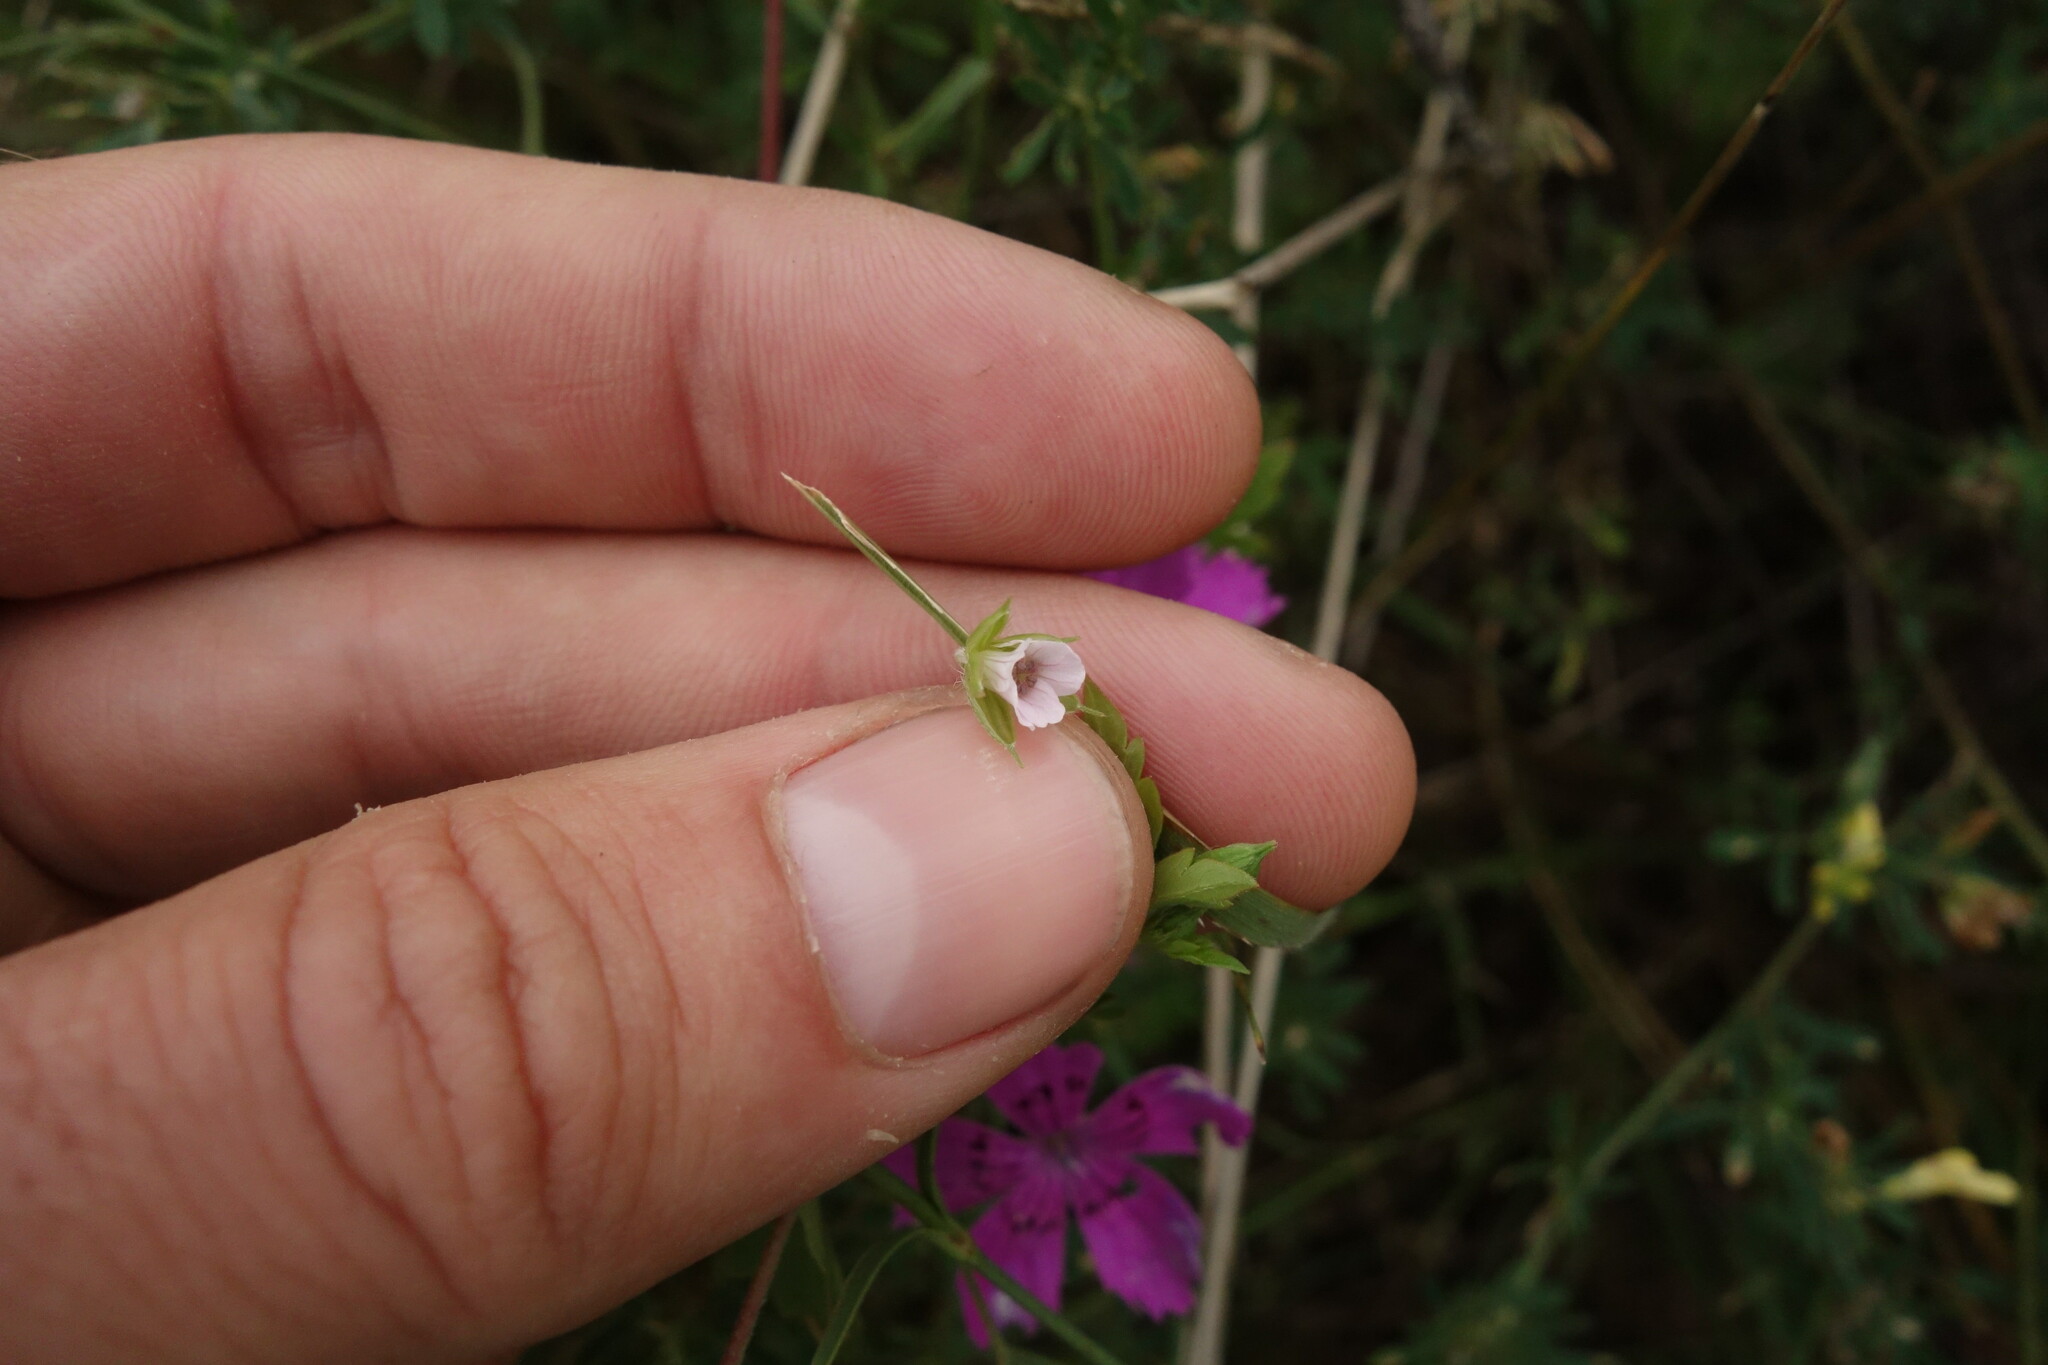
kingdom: Plantae
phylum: Tracheophyta
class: Magnoliopsida
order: Geraniales
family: Geraniaceae
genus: Geranium
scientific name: Geranium sibiricum
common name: Siberian crane's-bill
